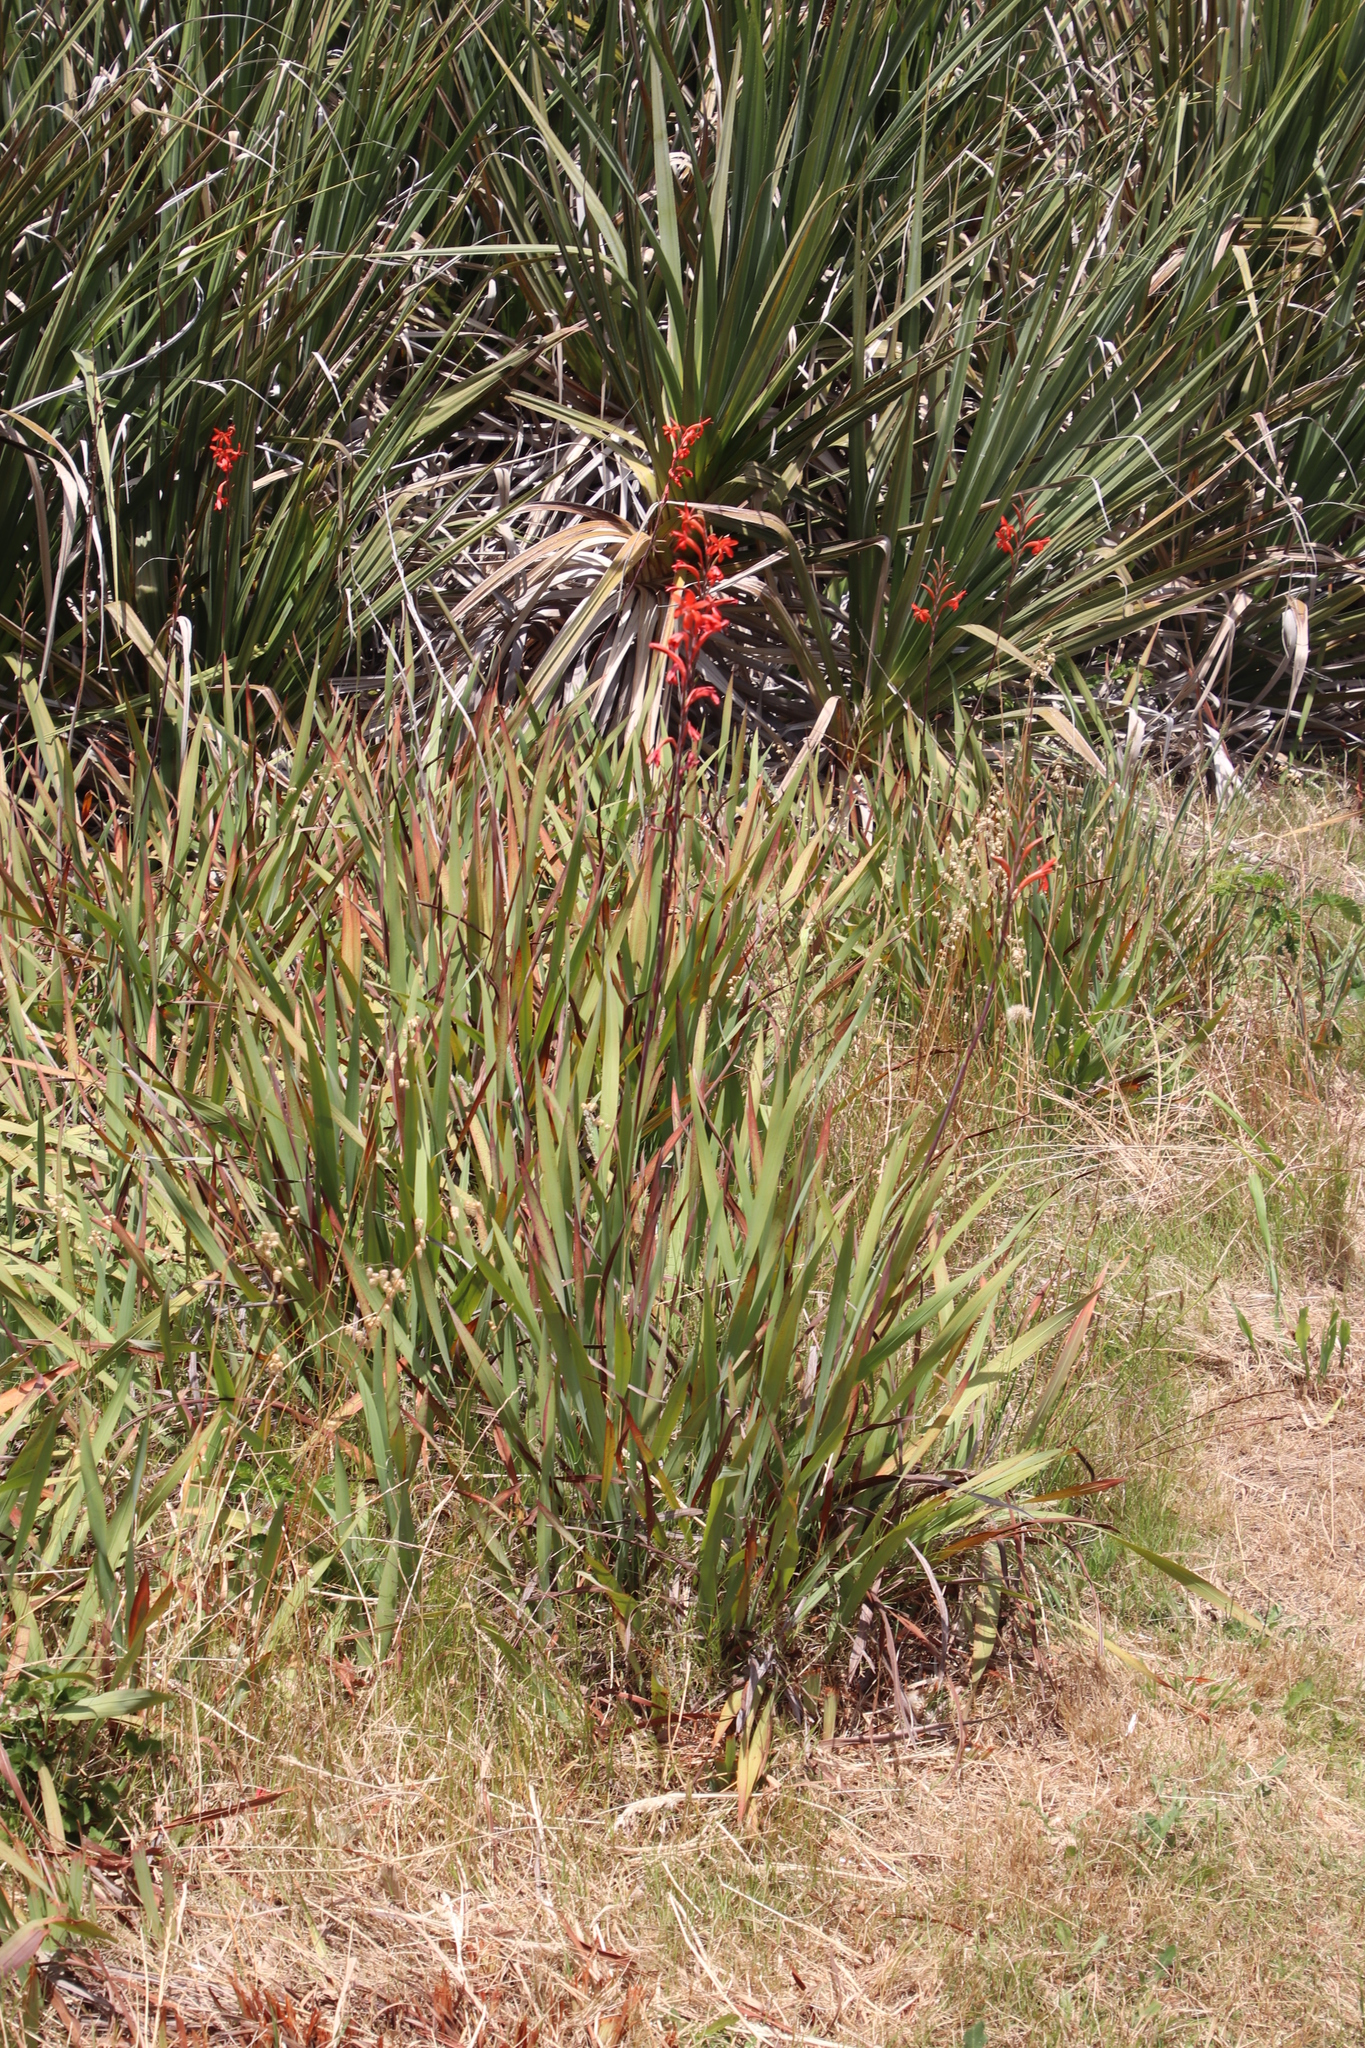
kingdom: Plantae
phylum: Tracheophyta
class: Liliopsida
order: Asparagales
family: Iridaceae
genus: Watsonia
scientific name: Watsonia angusta
